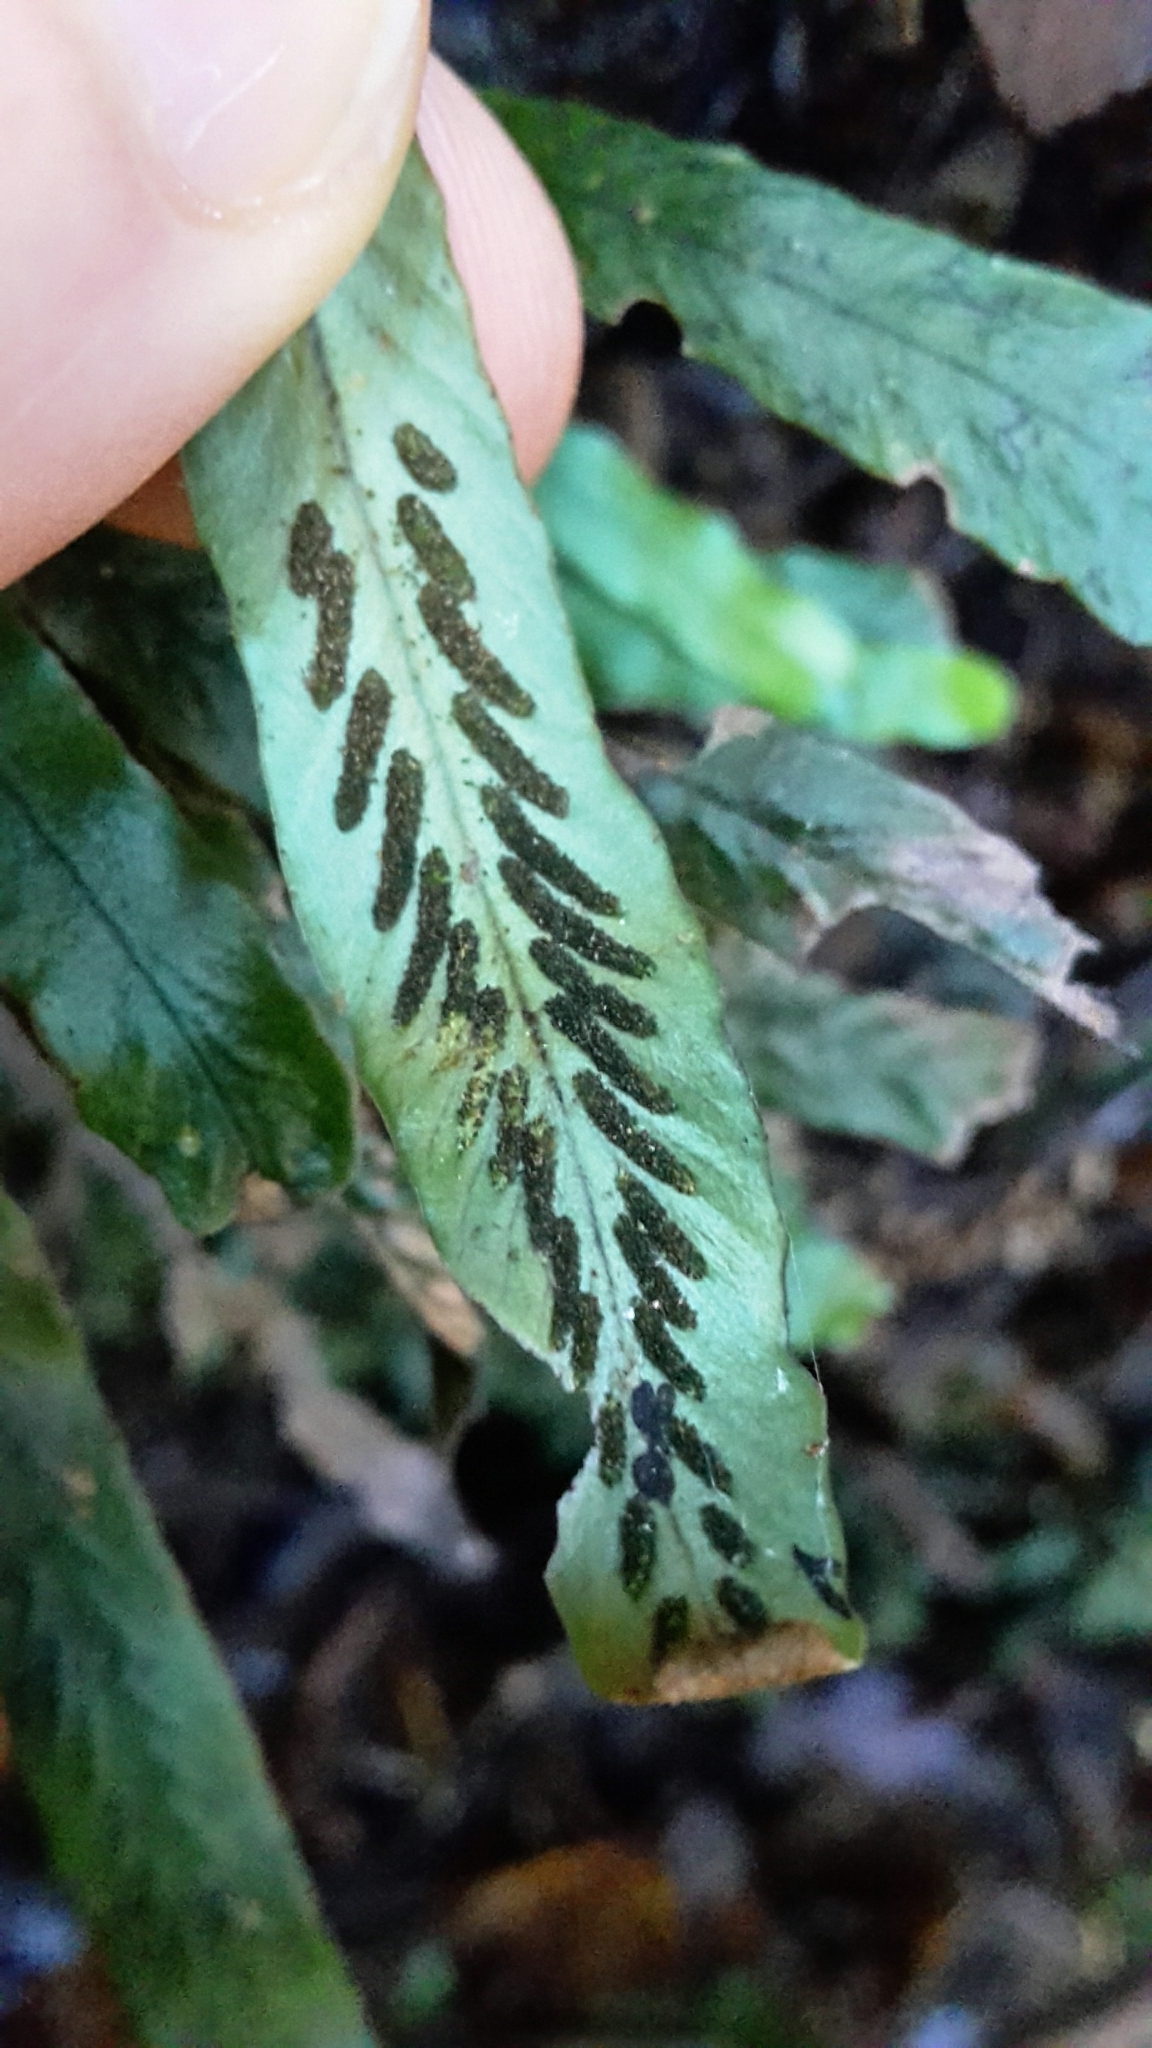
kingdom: Plantae
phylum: Tracheophyta
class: Polypodiopsida
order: Polypodiales
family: Polypodiaceae
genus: Notogrammitis
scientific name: Notogrammitis billardierei
